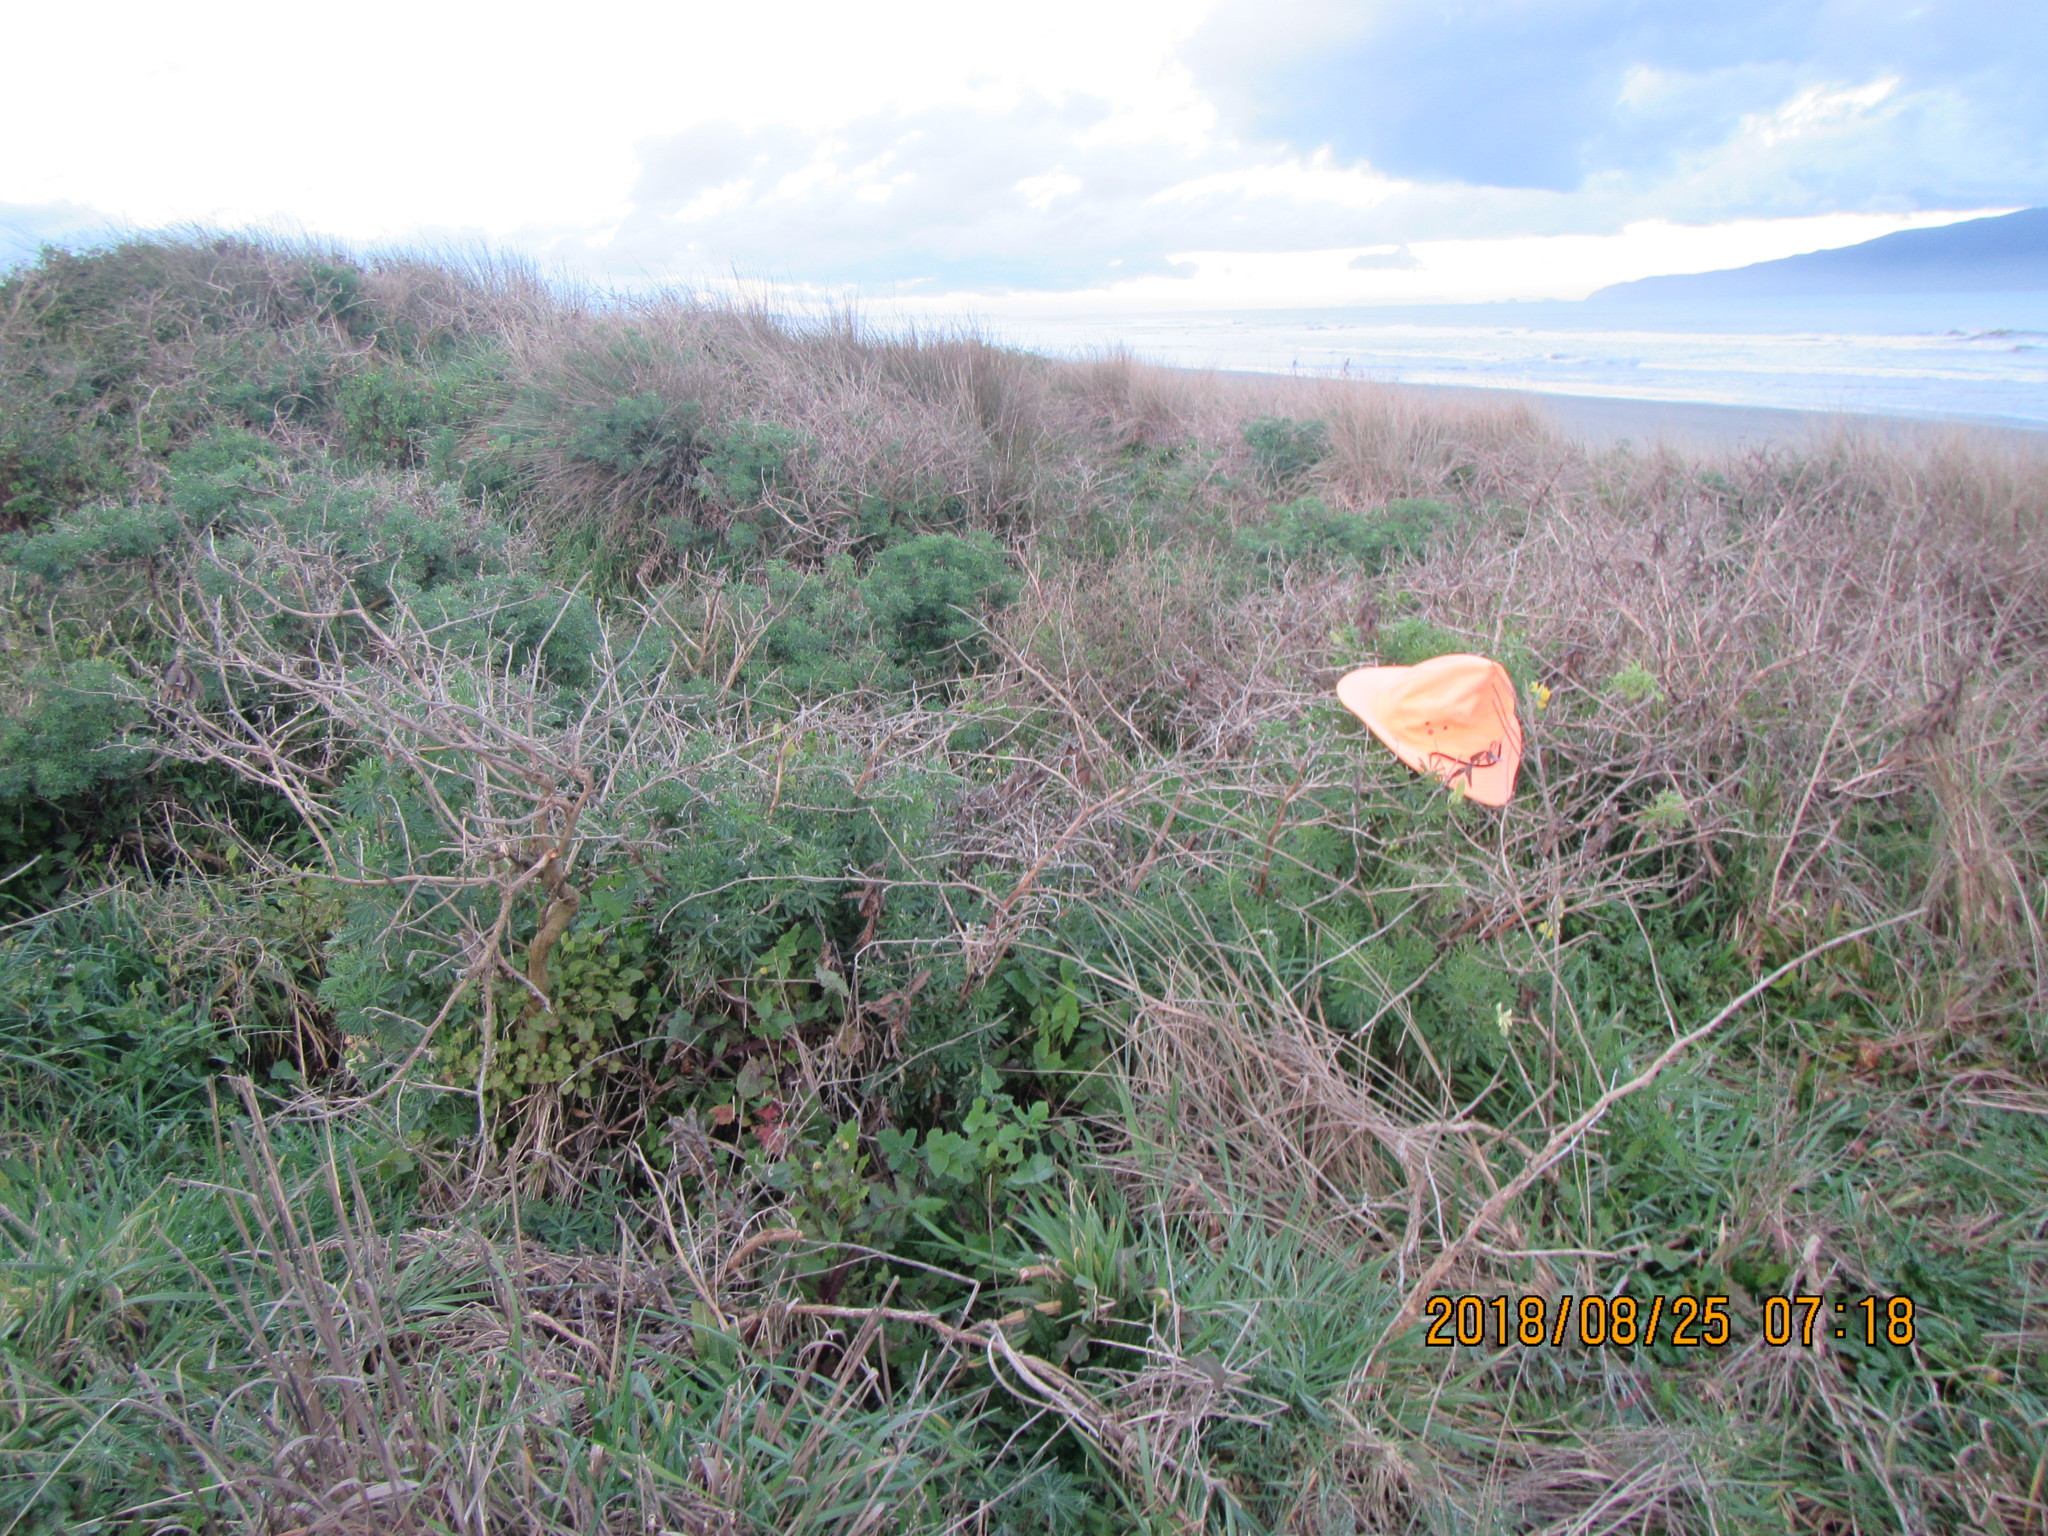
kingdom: Plantae
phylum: Tracheophyta
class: Magnoliopsida
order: Fabales
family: Fabaceae
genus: Lupinus
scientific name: Lupinus arboreus
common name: Yellow bush lupine
